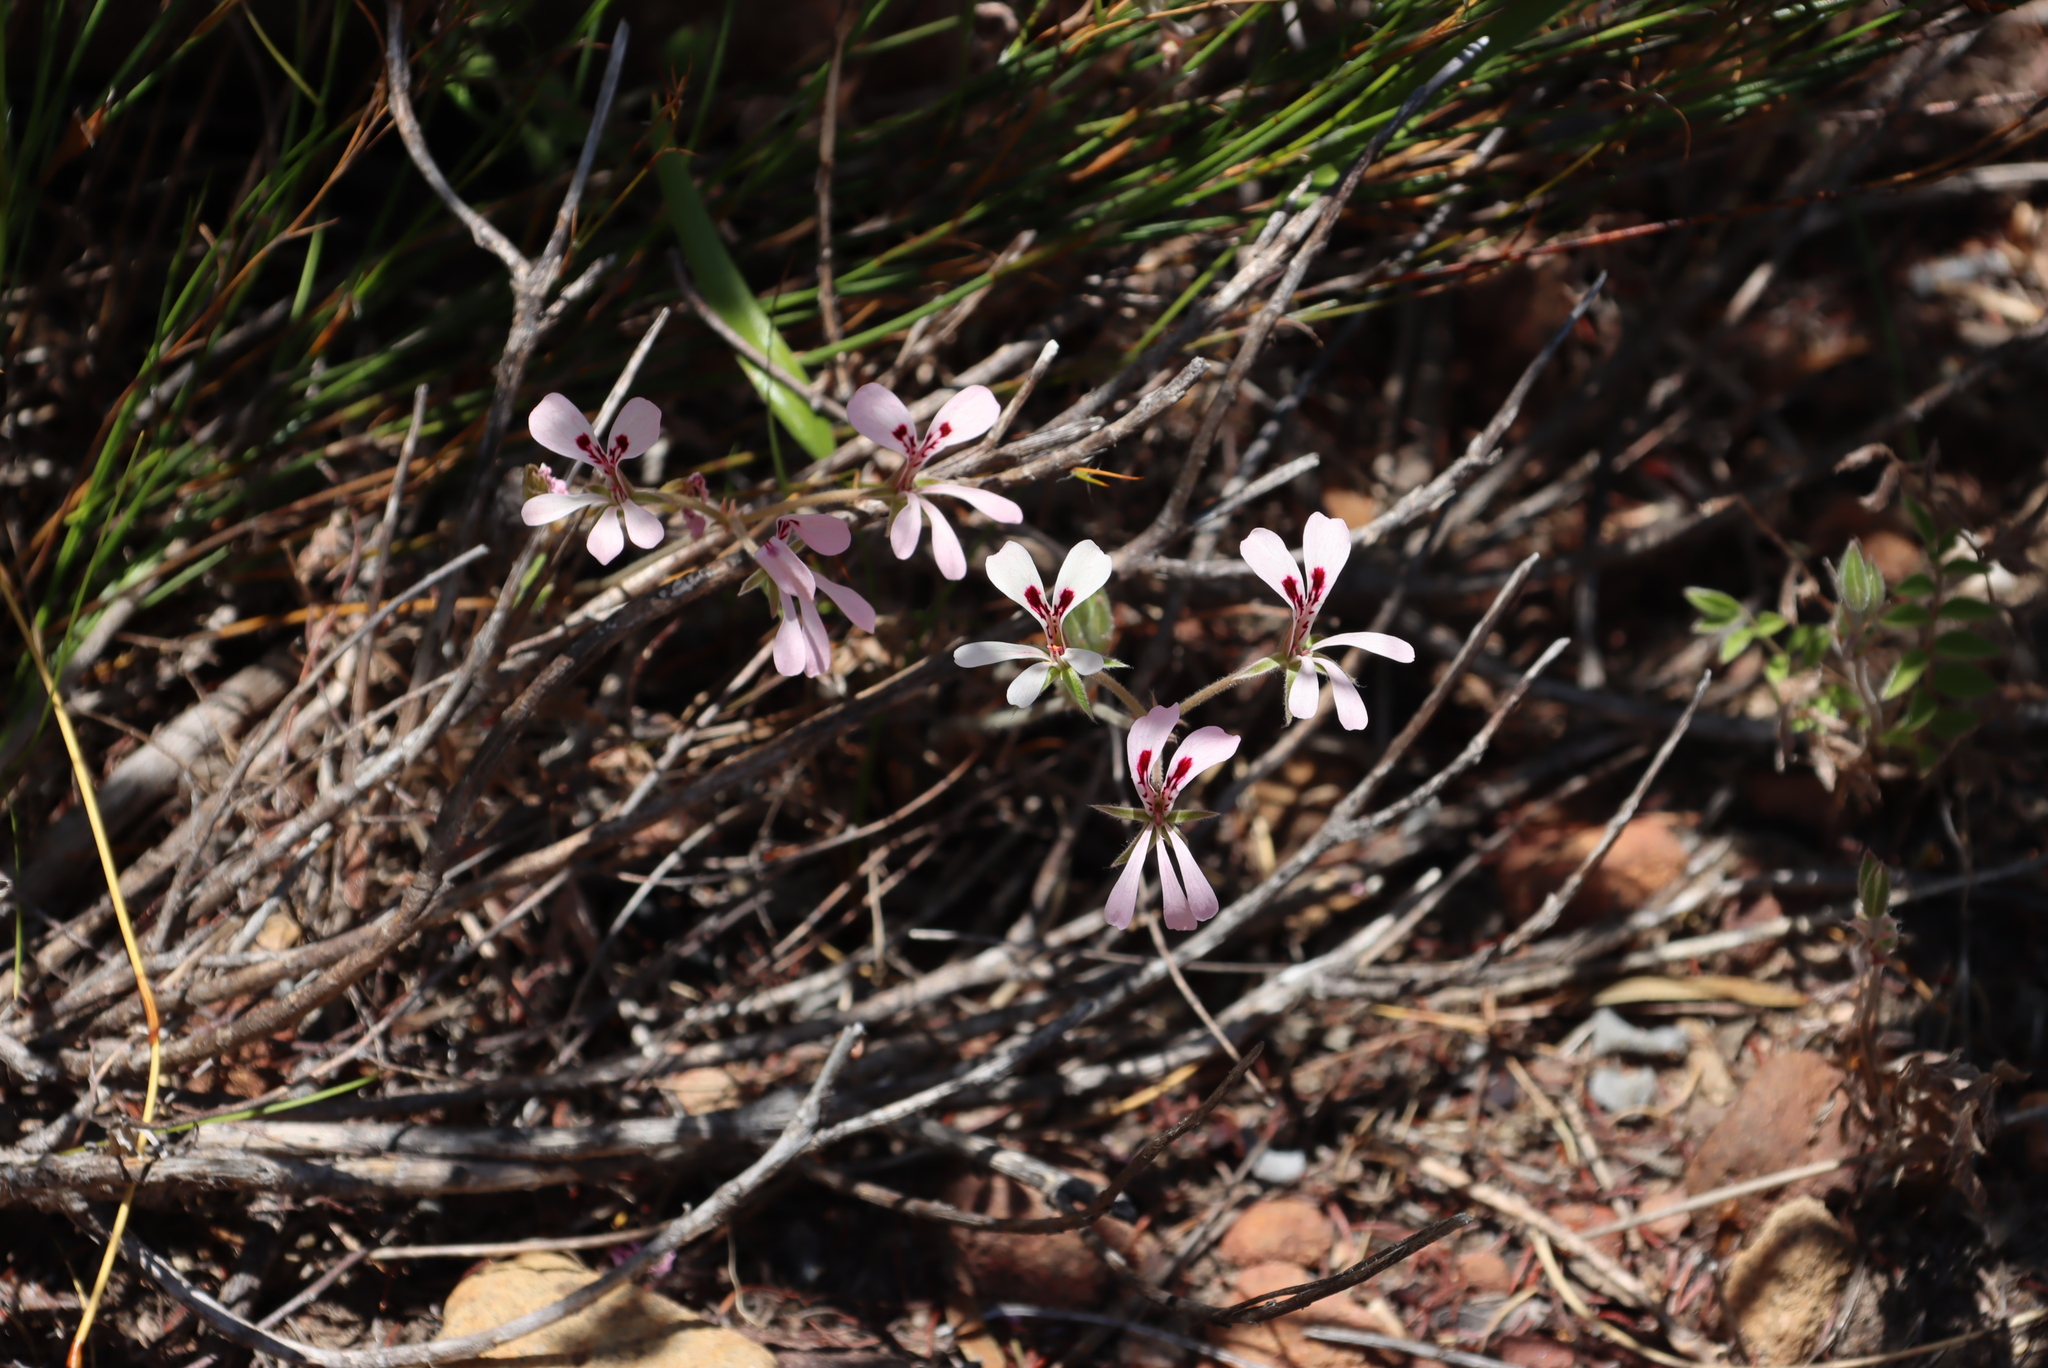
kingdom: Plantae
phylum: Tracheophyta
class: Magnoliopsida
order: Geraniales
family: Geraniaceae
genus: Pelargonium
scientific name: Pelargonium pinnatum
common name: Pinnated pelargonium
